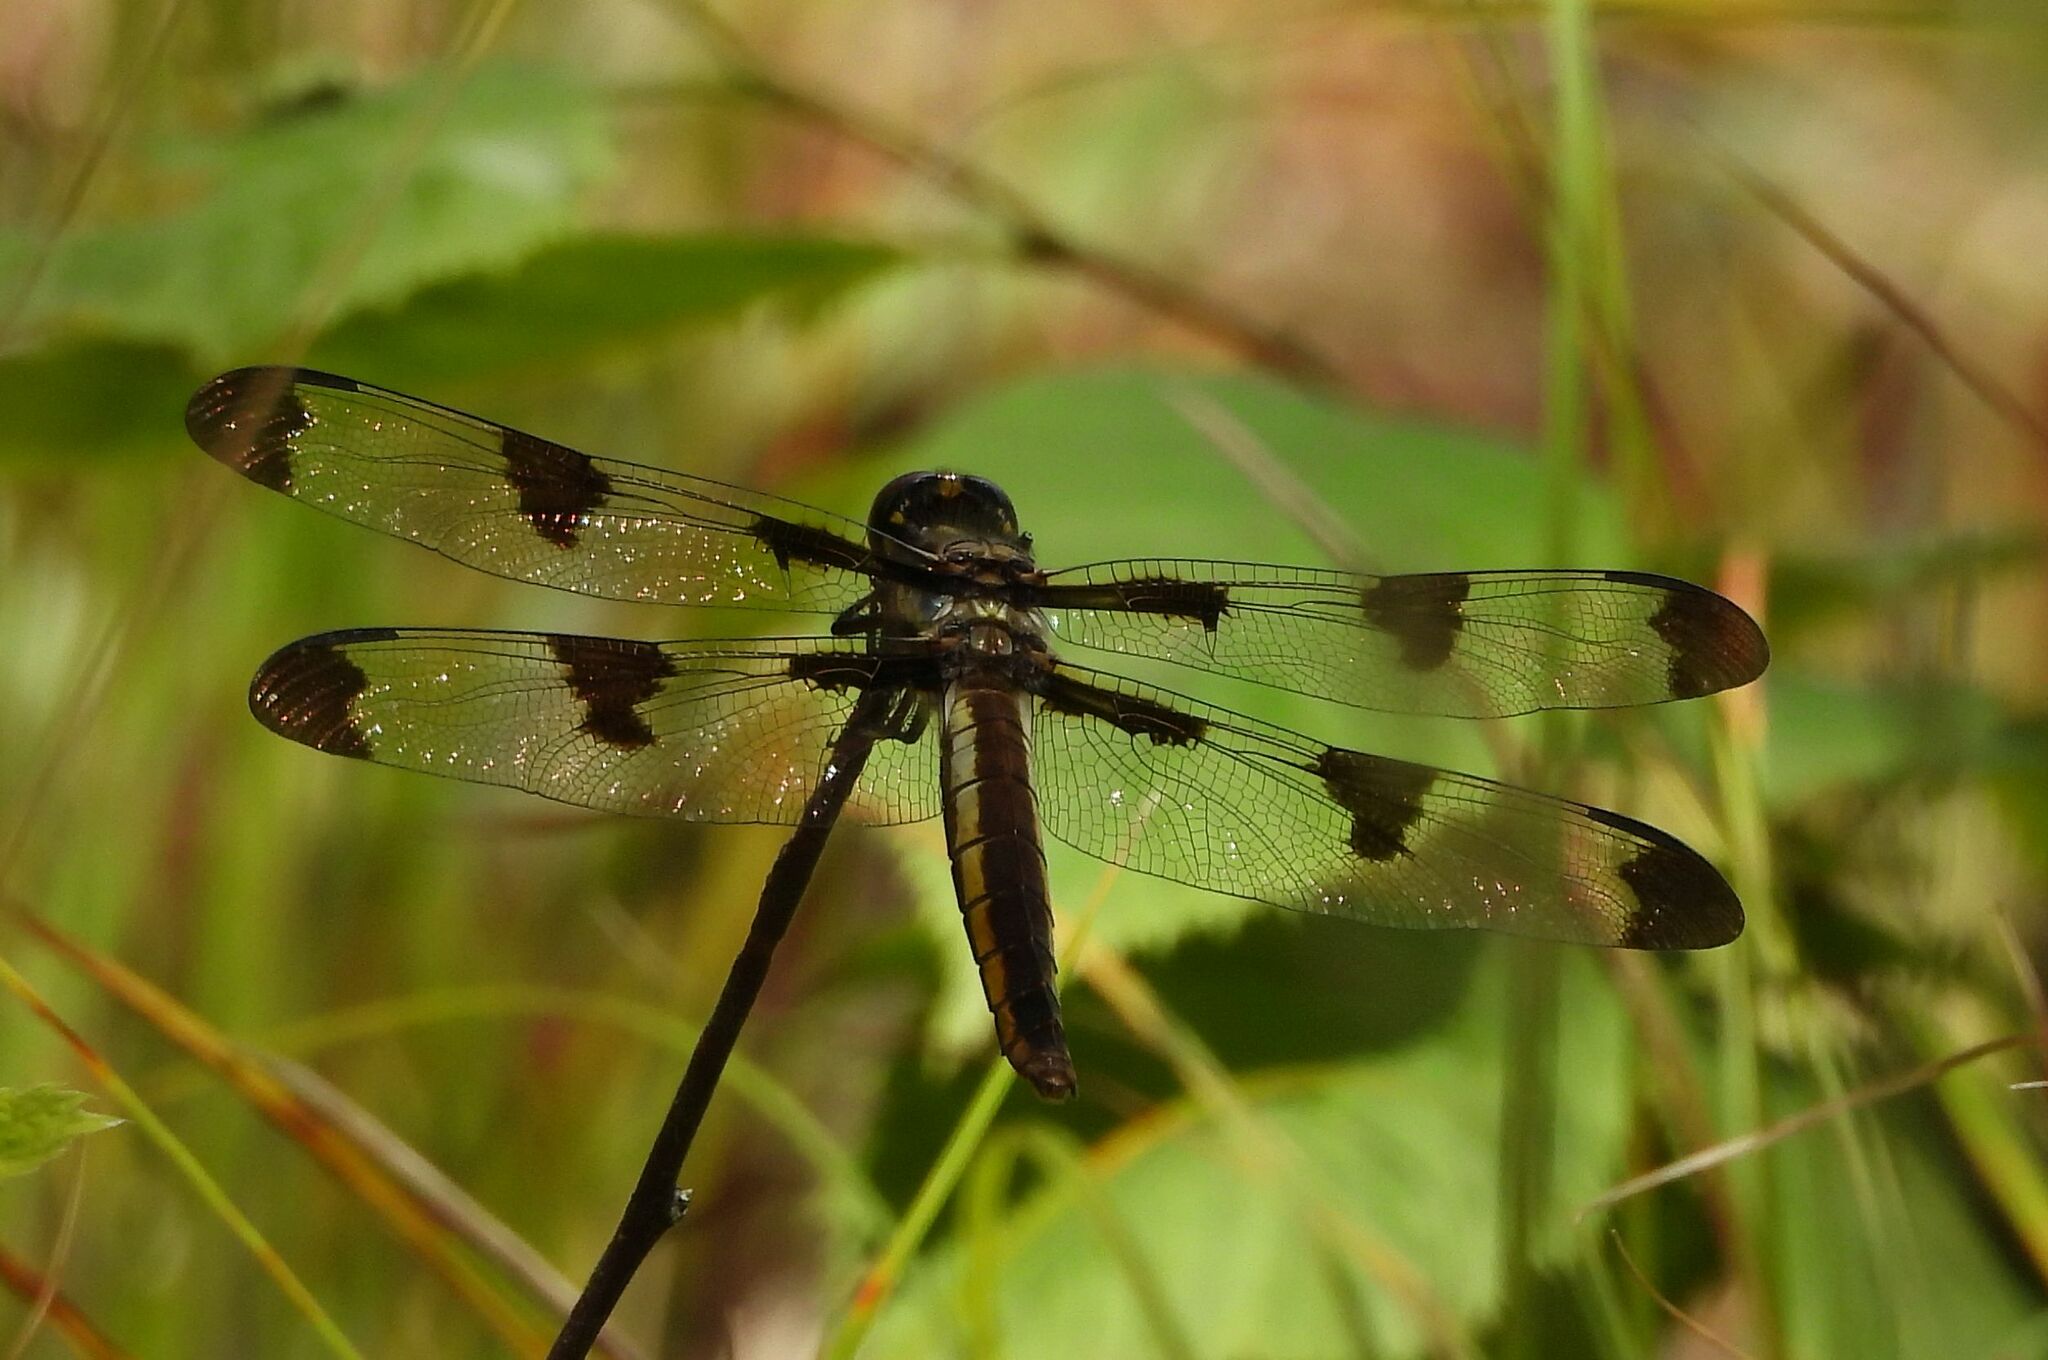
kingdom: Animalia
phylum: Arthropoda
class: Insecta
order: Odonata
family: Libellulidae
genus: Libellula
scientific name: Libellula pulchella
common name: Twelve-spotted skimmer
